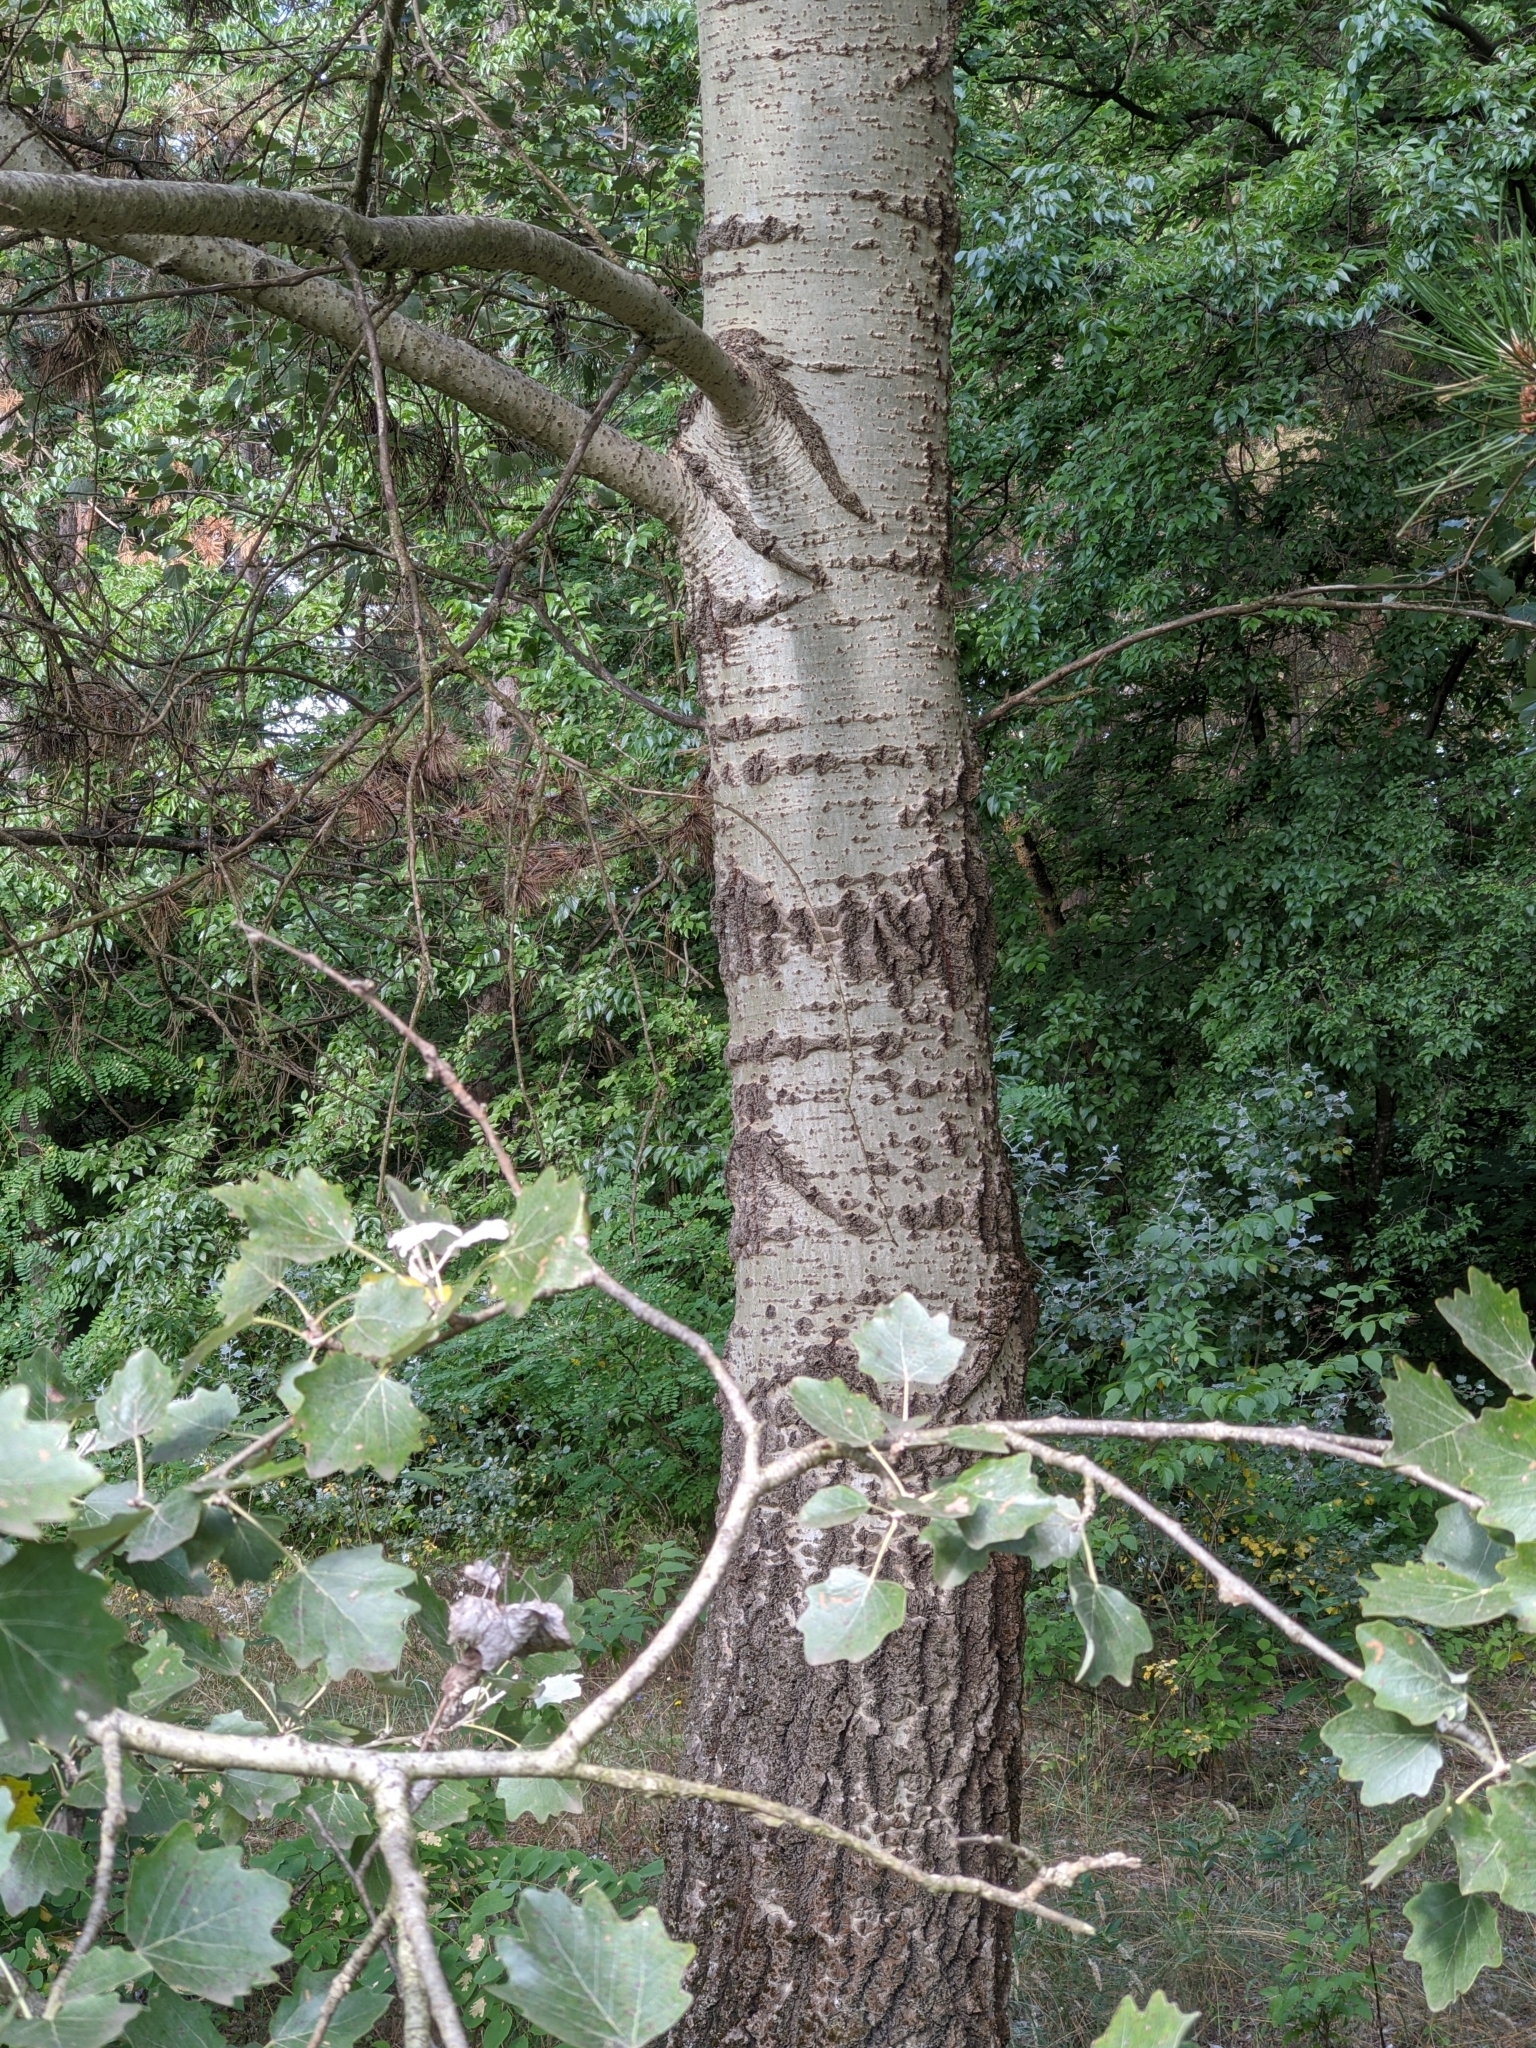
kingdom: Plantae
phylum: Tracheophyta
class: Magnoliopsida
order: Malpighiales
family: Salicaceae
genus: Populus
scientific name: Populus alba
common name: White poplar
